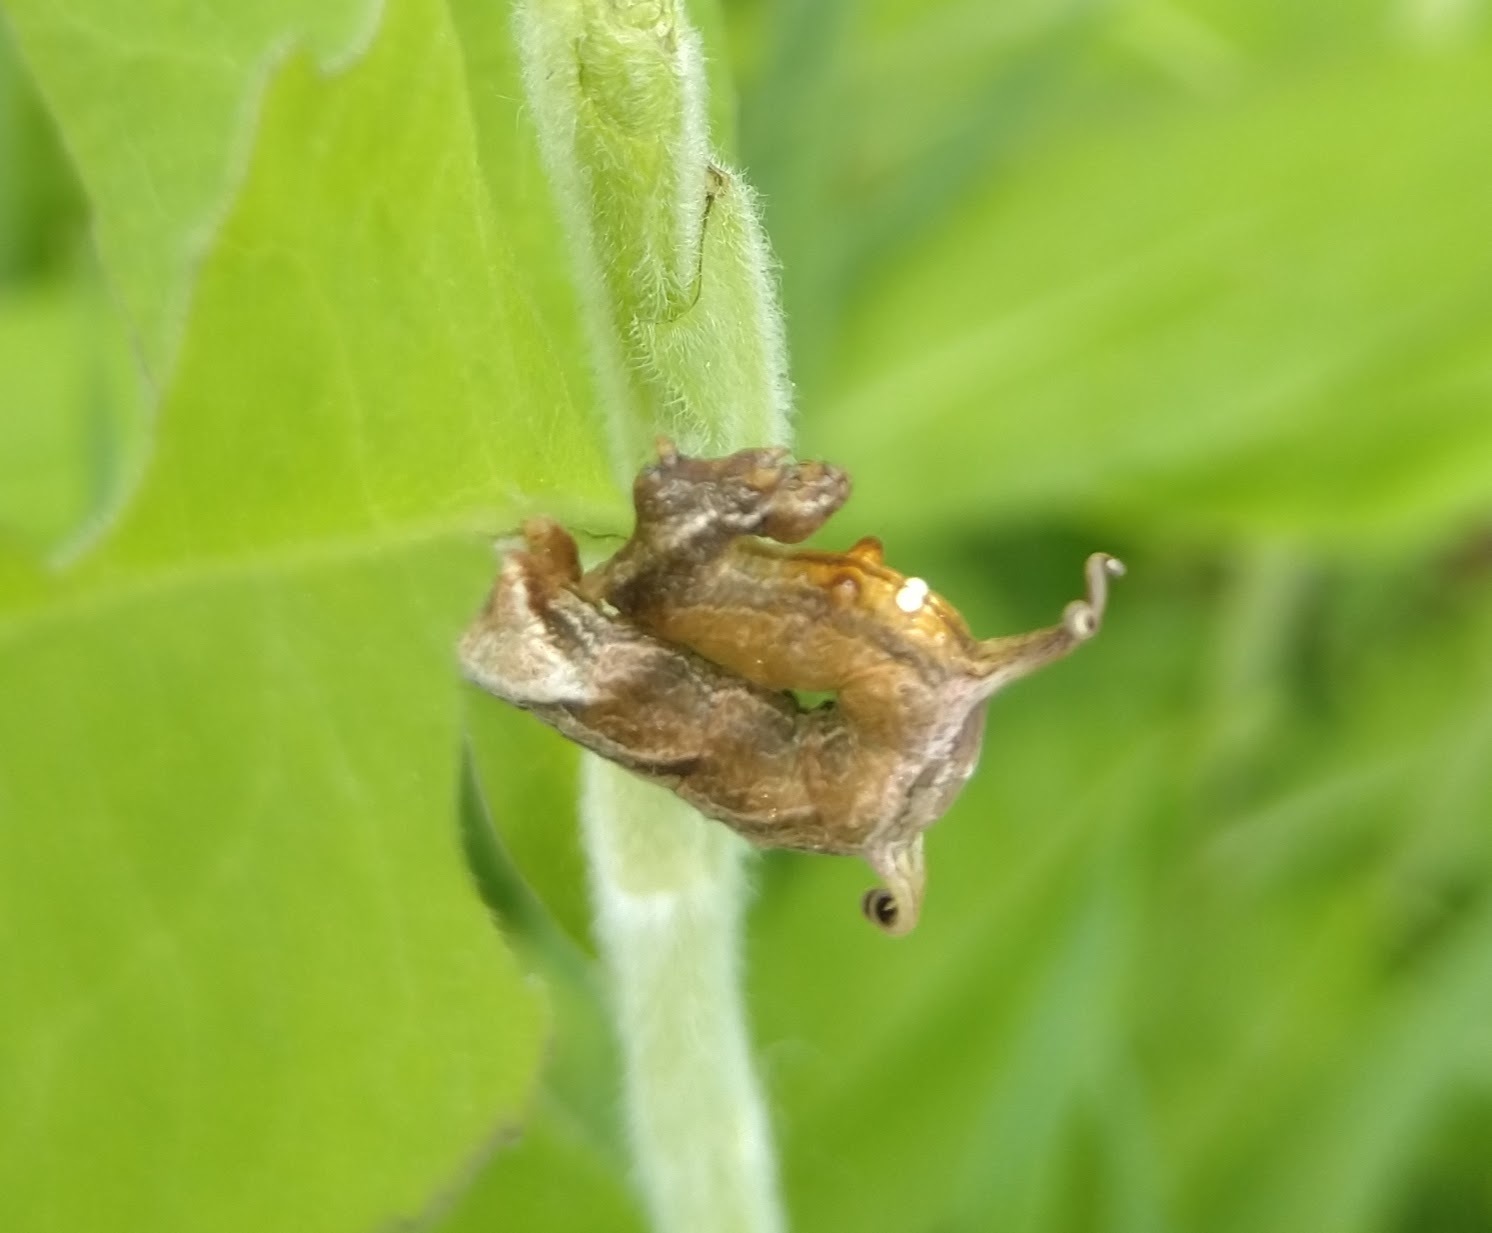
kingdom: Animalia
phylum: Arthropoda
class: Insecta
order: Lepidoptera
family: Geometridae
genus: Nematocampa
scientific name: Nematocampa resistaria
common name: Horned spanworm moth
